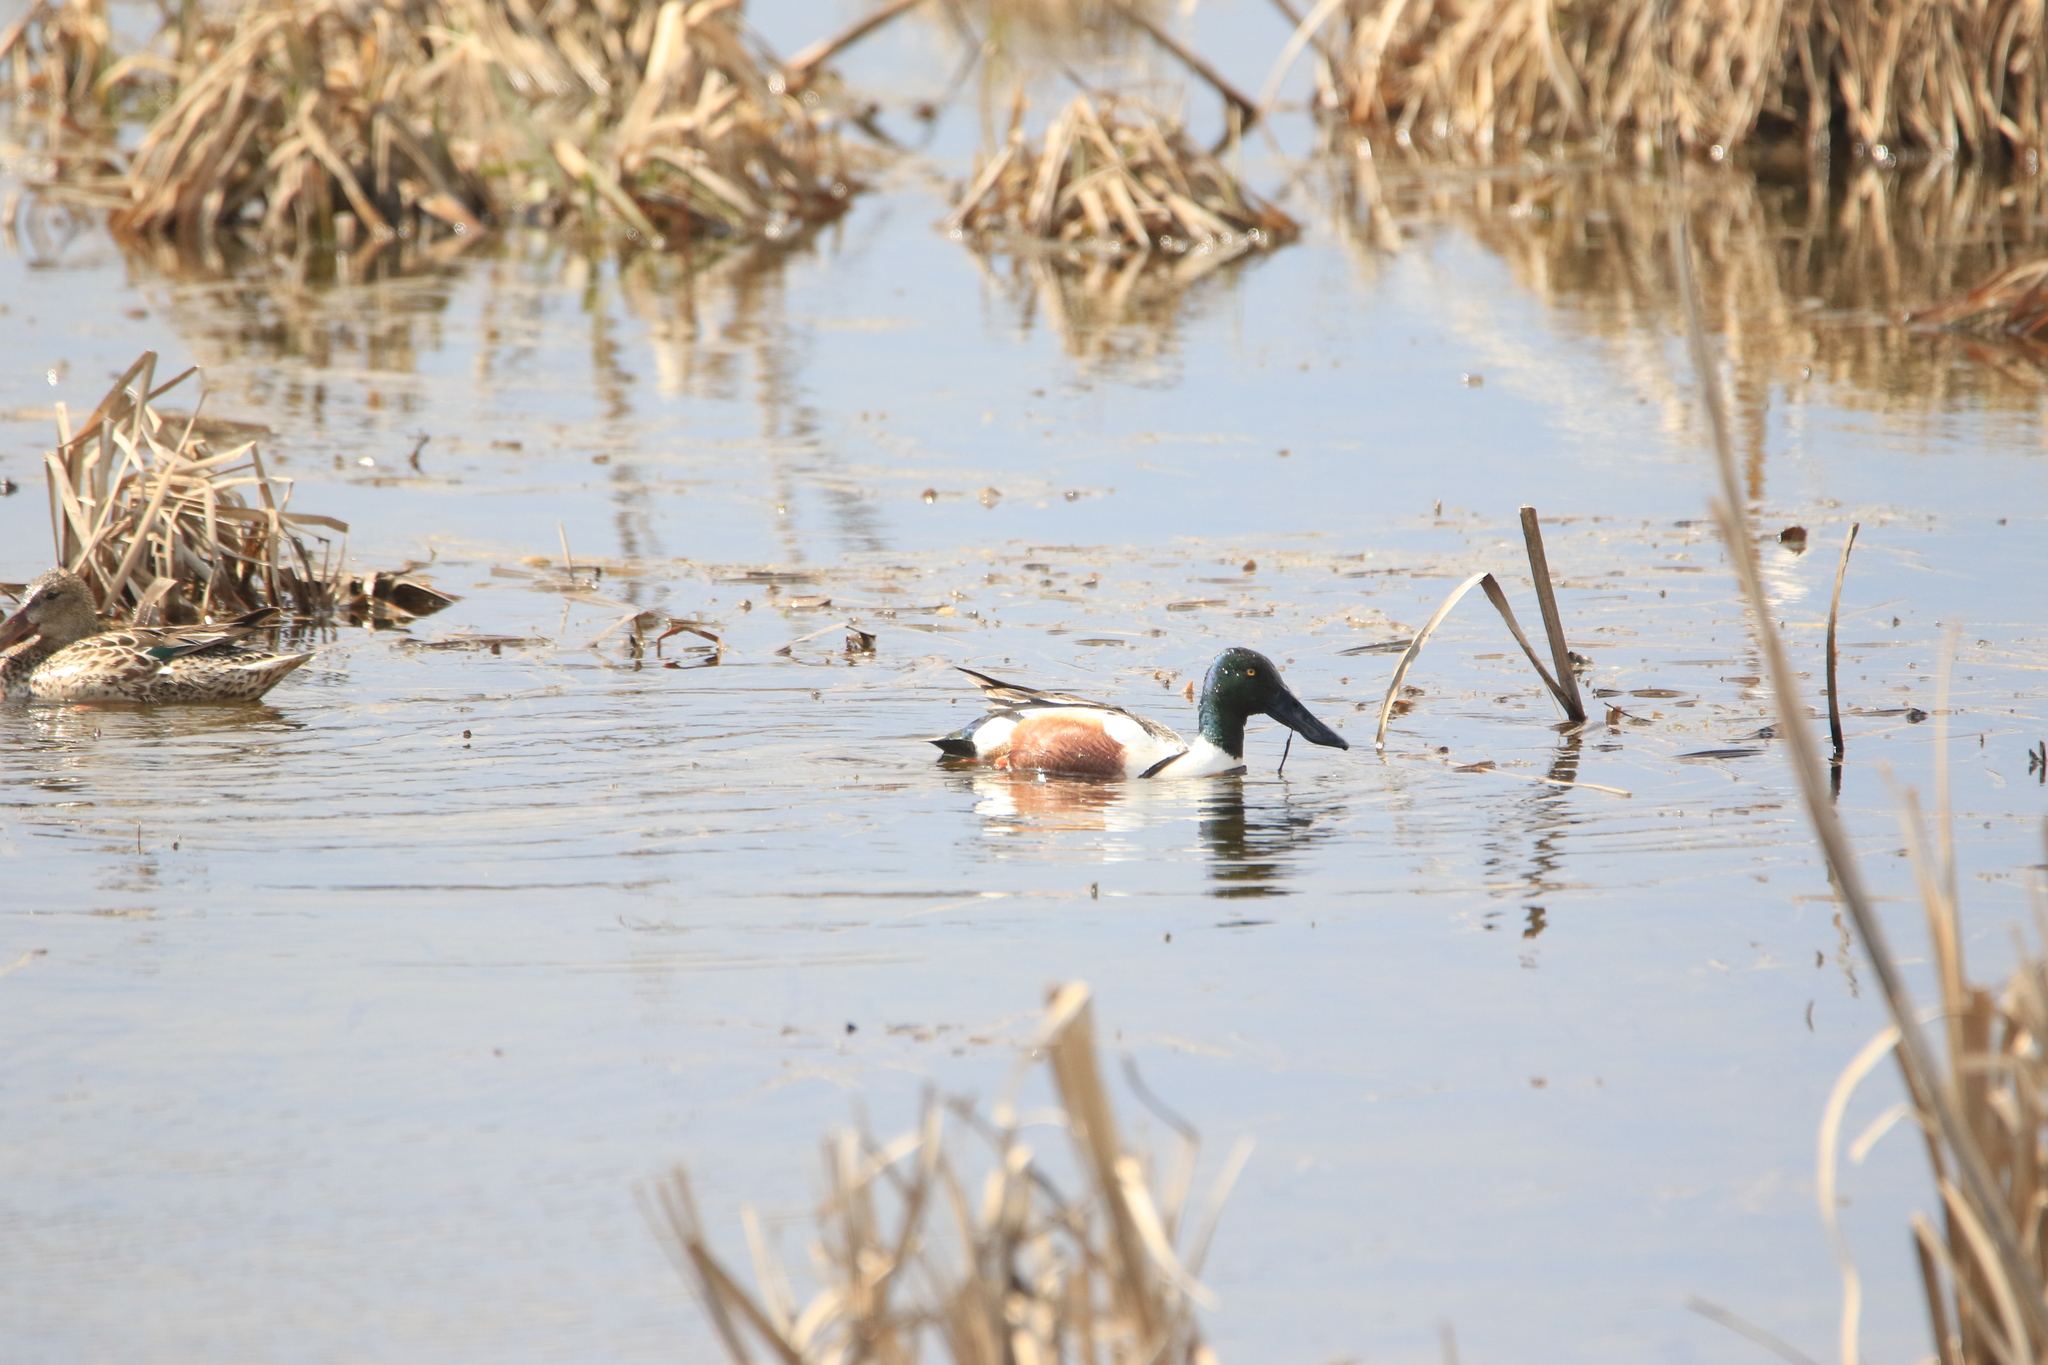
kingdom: Animalia
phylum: Chordata
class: Aves
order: Anseriformes
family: Anatidae
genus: Spatula
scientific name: Spatula clypeata
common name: Northern shoveler
